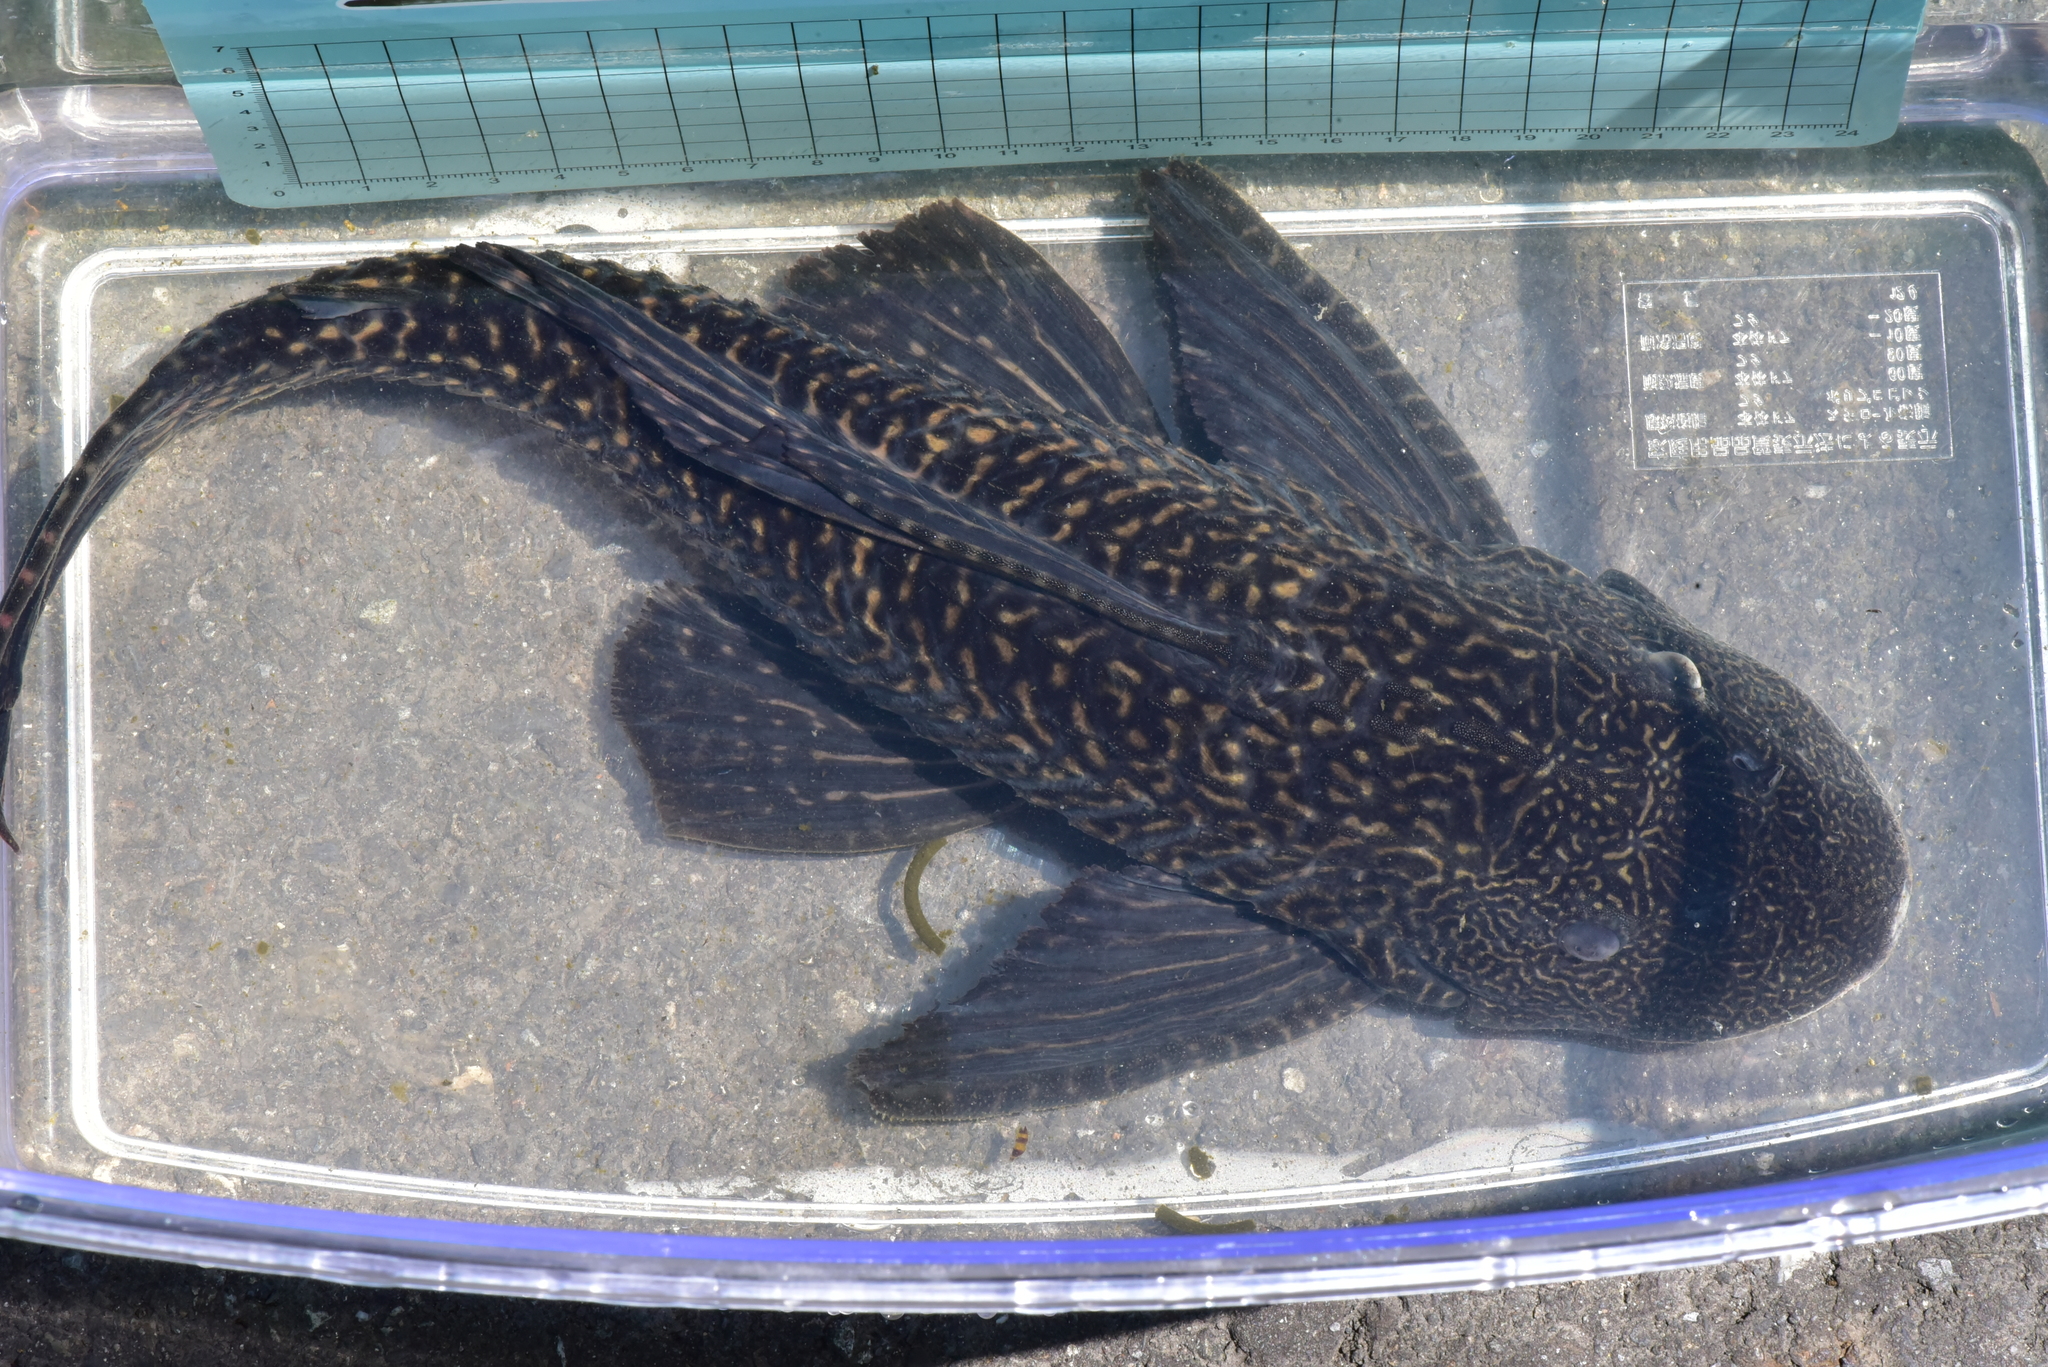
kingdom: Animalia
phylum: Chordata
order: Siluriformes
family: Loricariidae
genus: Pterygoplichthys
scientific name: Pterygoplichthys
